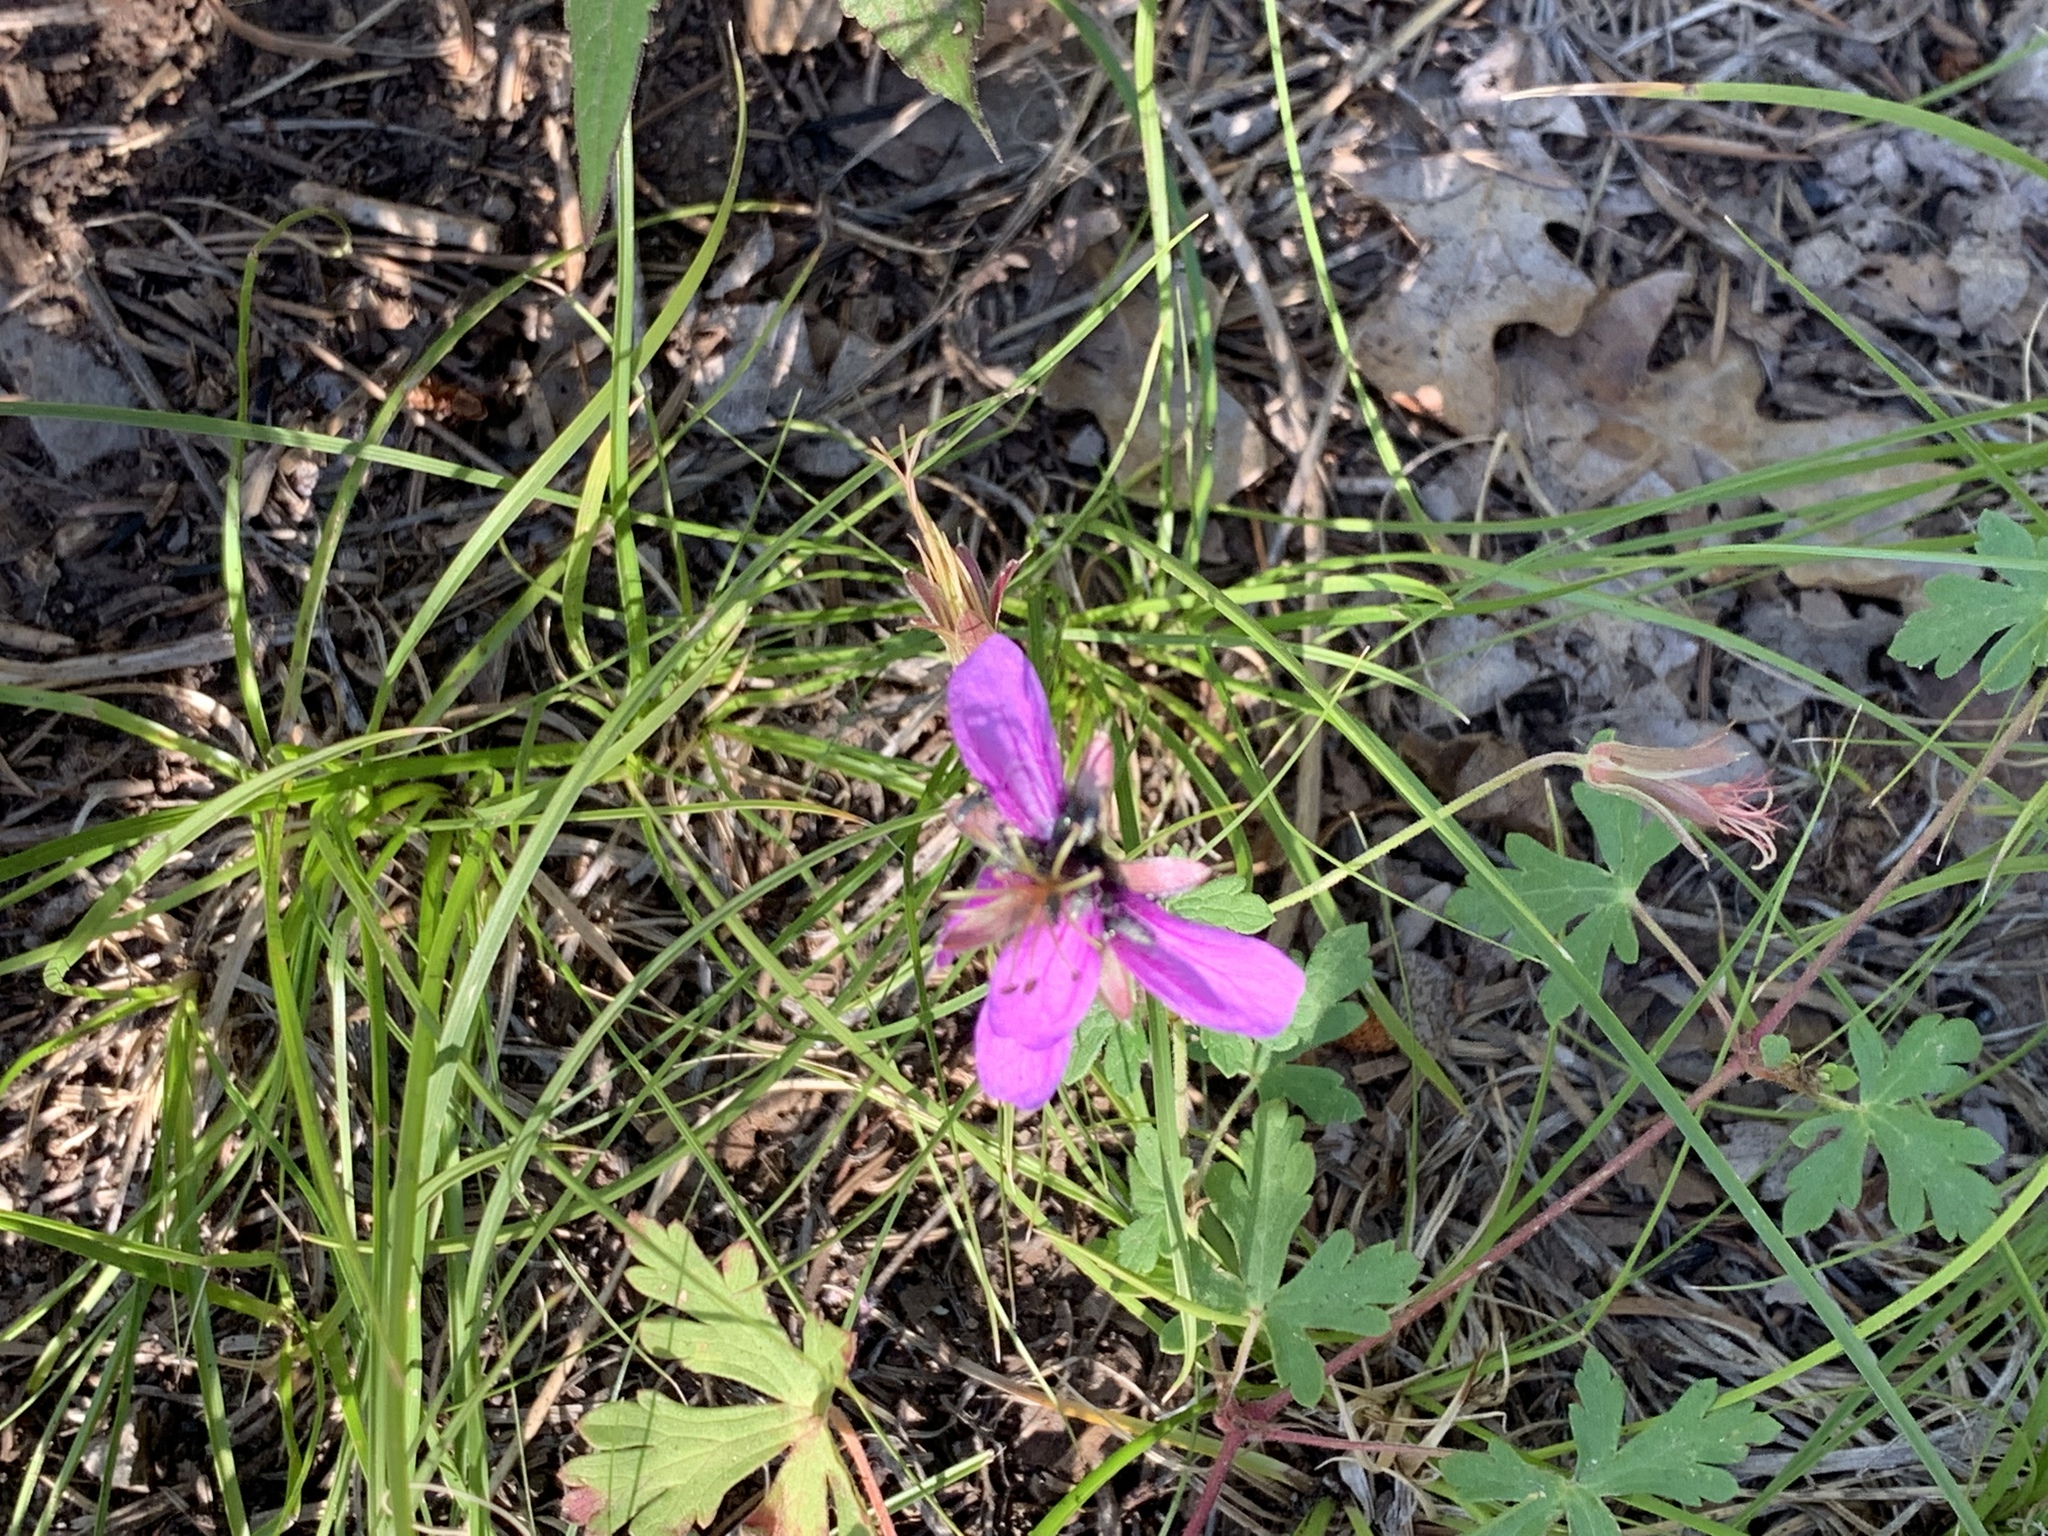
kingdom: Plantae
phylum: Tracheophyta
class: Magnoliopsida
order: Geraniales
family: Geraniaceae
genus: Geranium
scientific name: Geranium caespitosum
